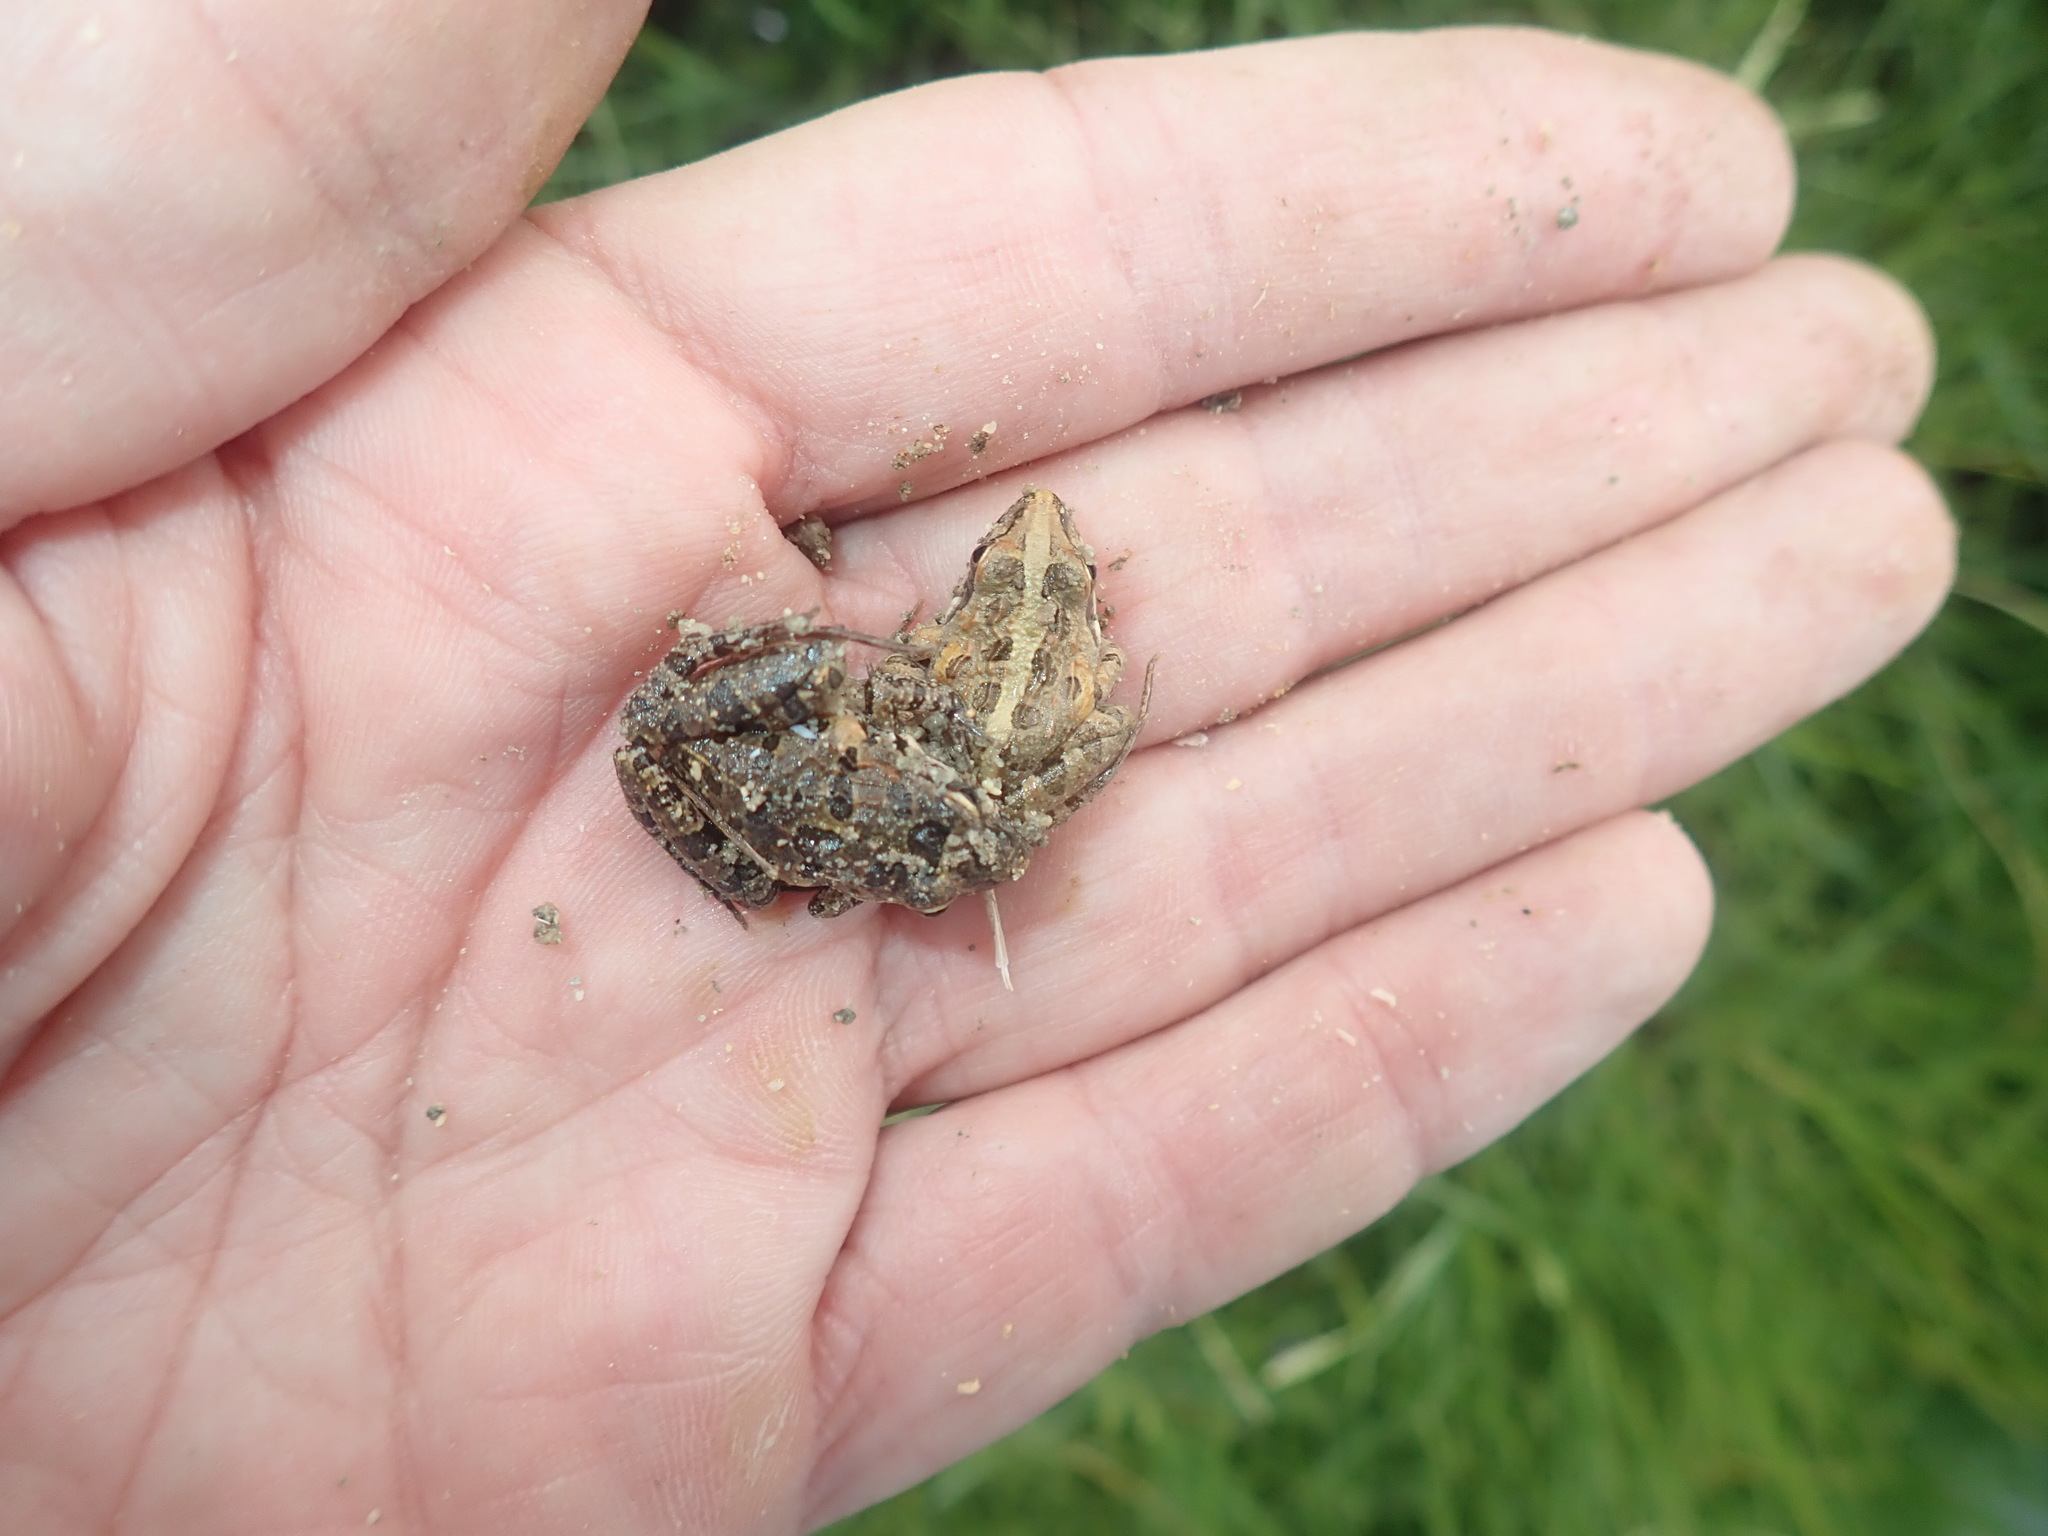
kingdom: Animalia
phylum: Chordata
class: Amphibia
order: Anura
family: Pyxicephalidae
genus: Strongylopus
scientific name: Strongylopus grayii
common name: Gray's stream frog
